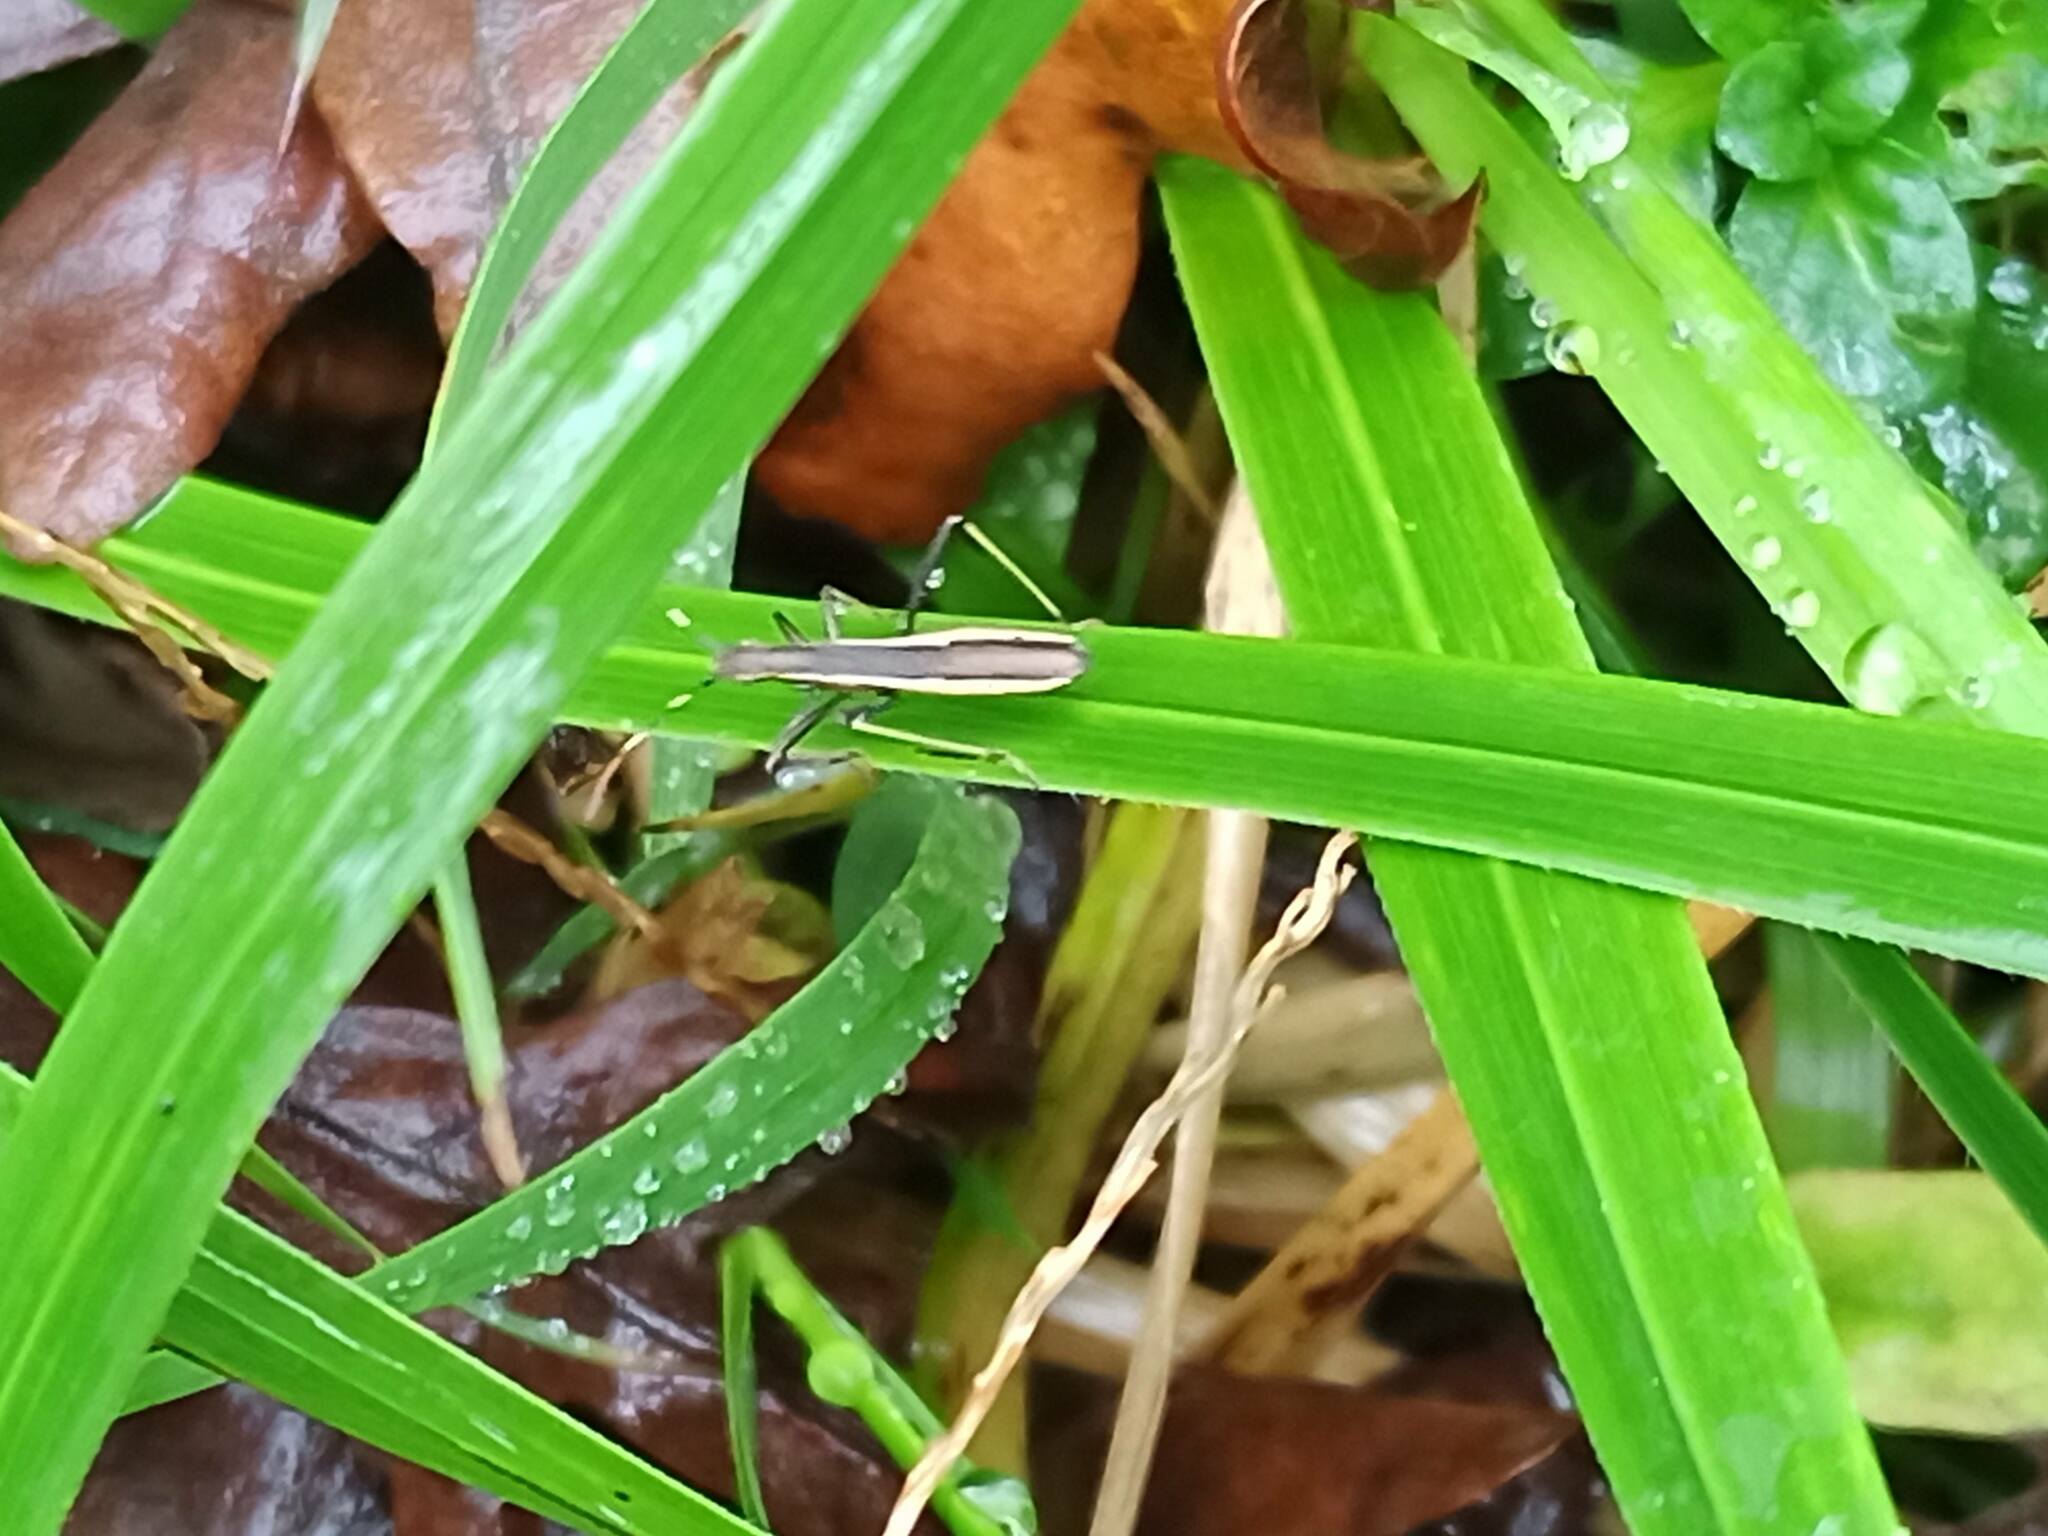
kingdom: Animalia
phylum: Arthropoda
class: Insecta
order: Hemiptera
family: Alydidae
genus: Micrelytra
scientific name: Micrelytra fossularum
